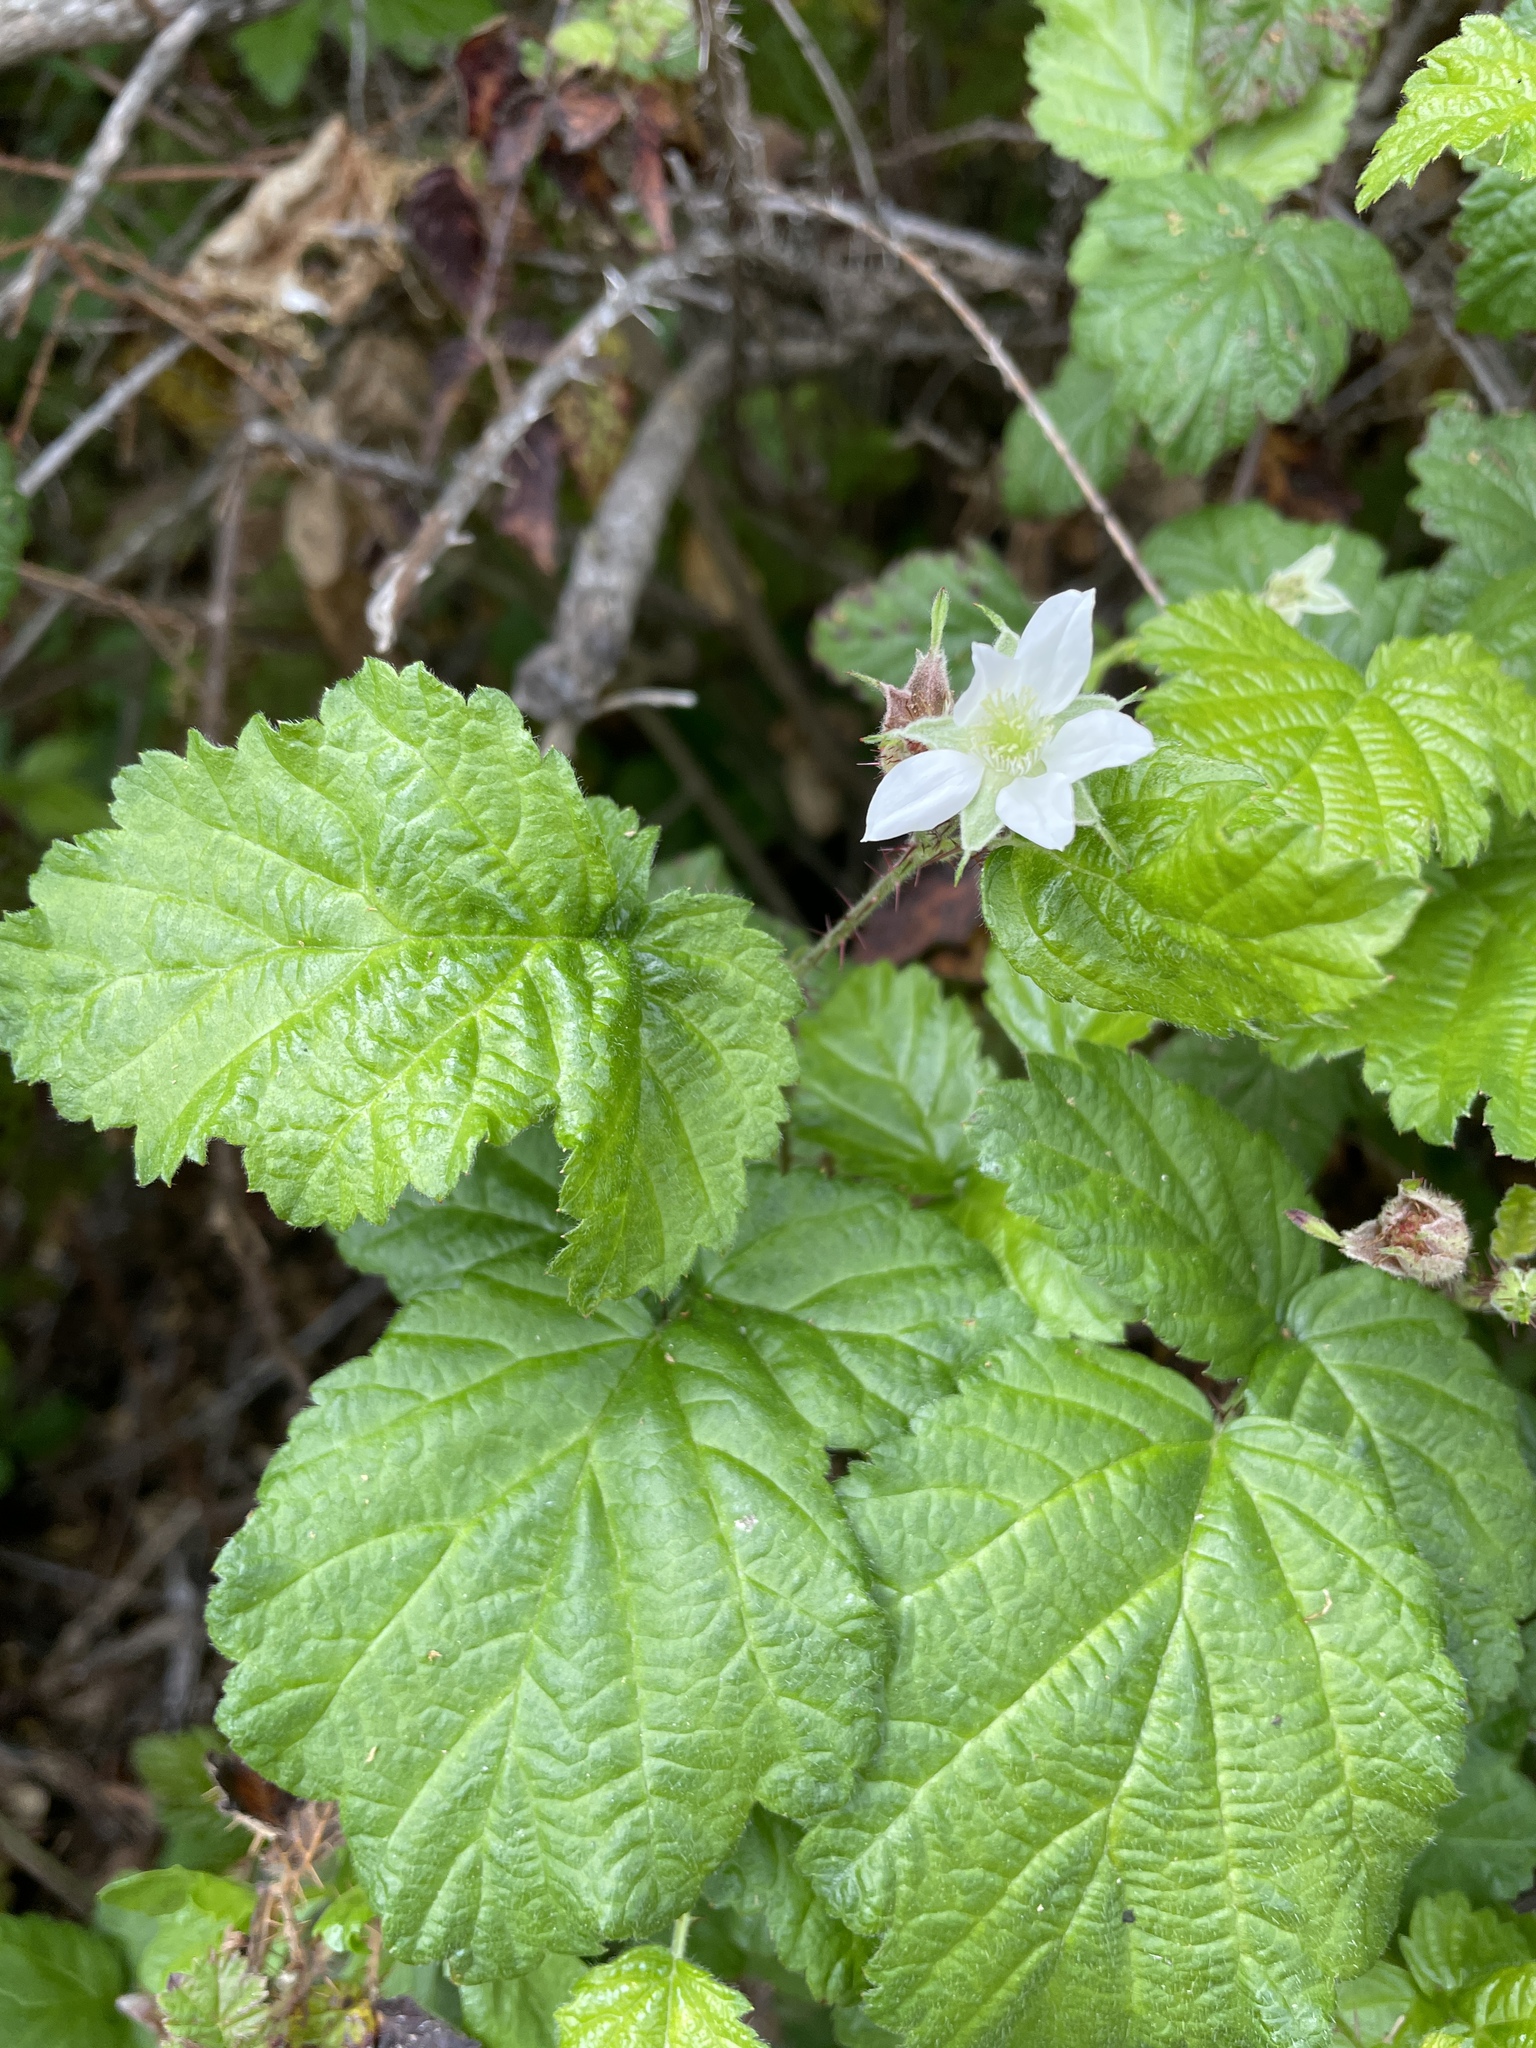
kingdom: Plantae
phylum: Tracheophyta
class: Magnoliopsida
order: Rosales
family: Rosaceae
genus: Rubus
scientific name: Rubus ursinus
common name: Pacific blackberry
